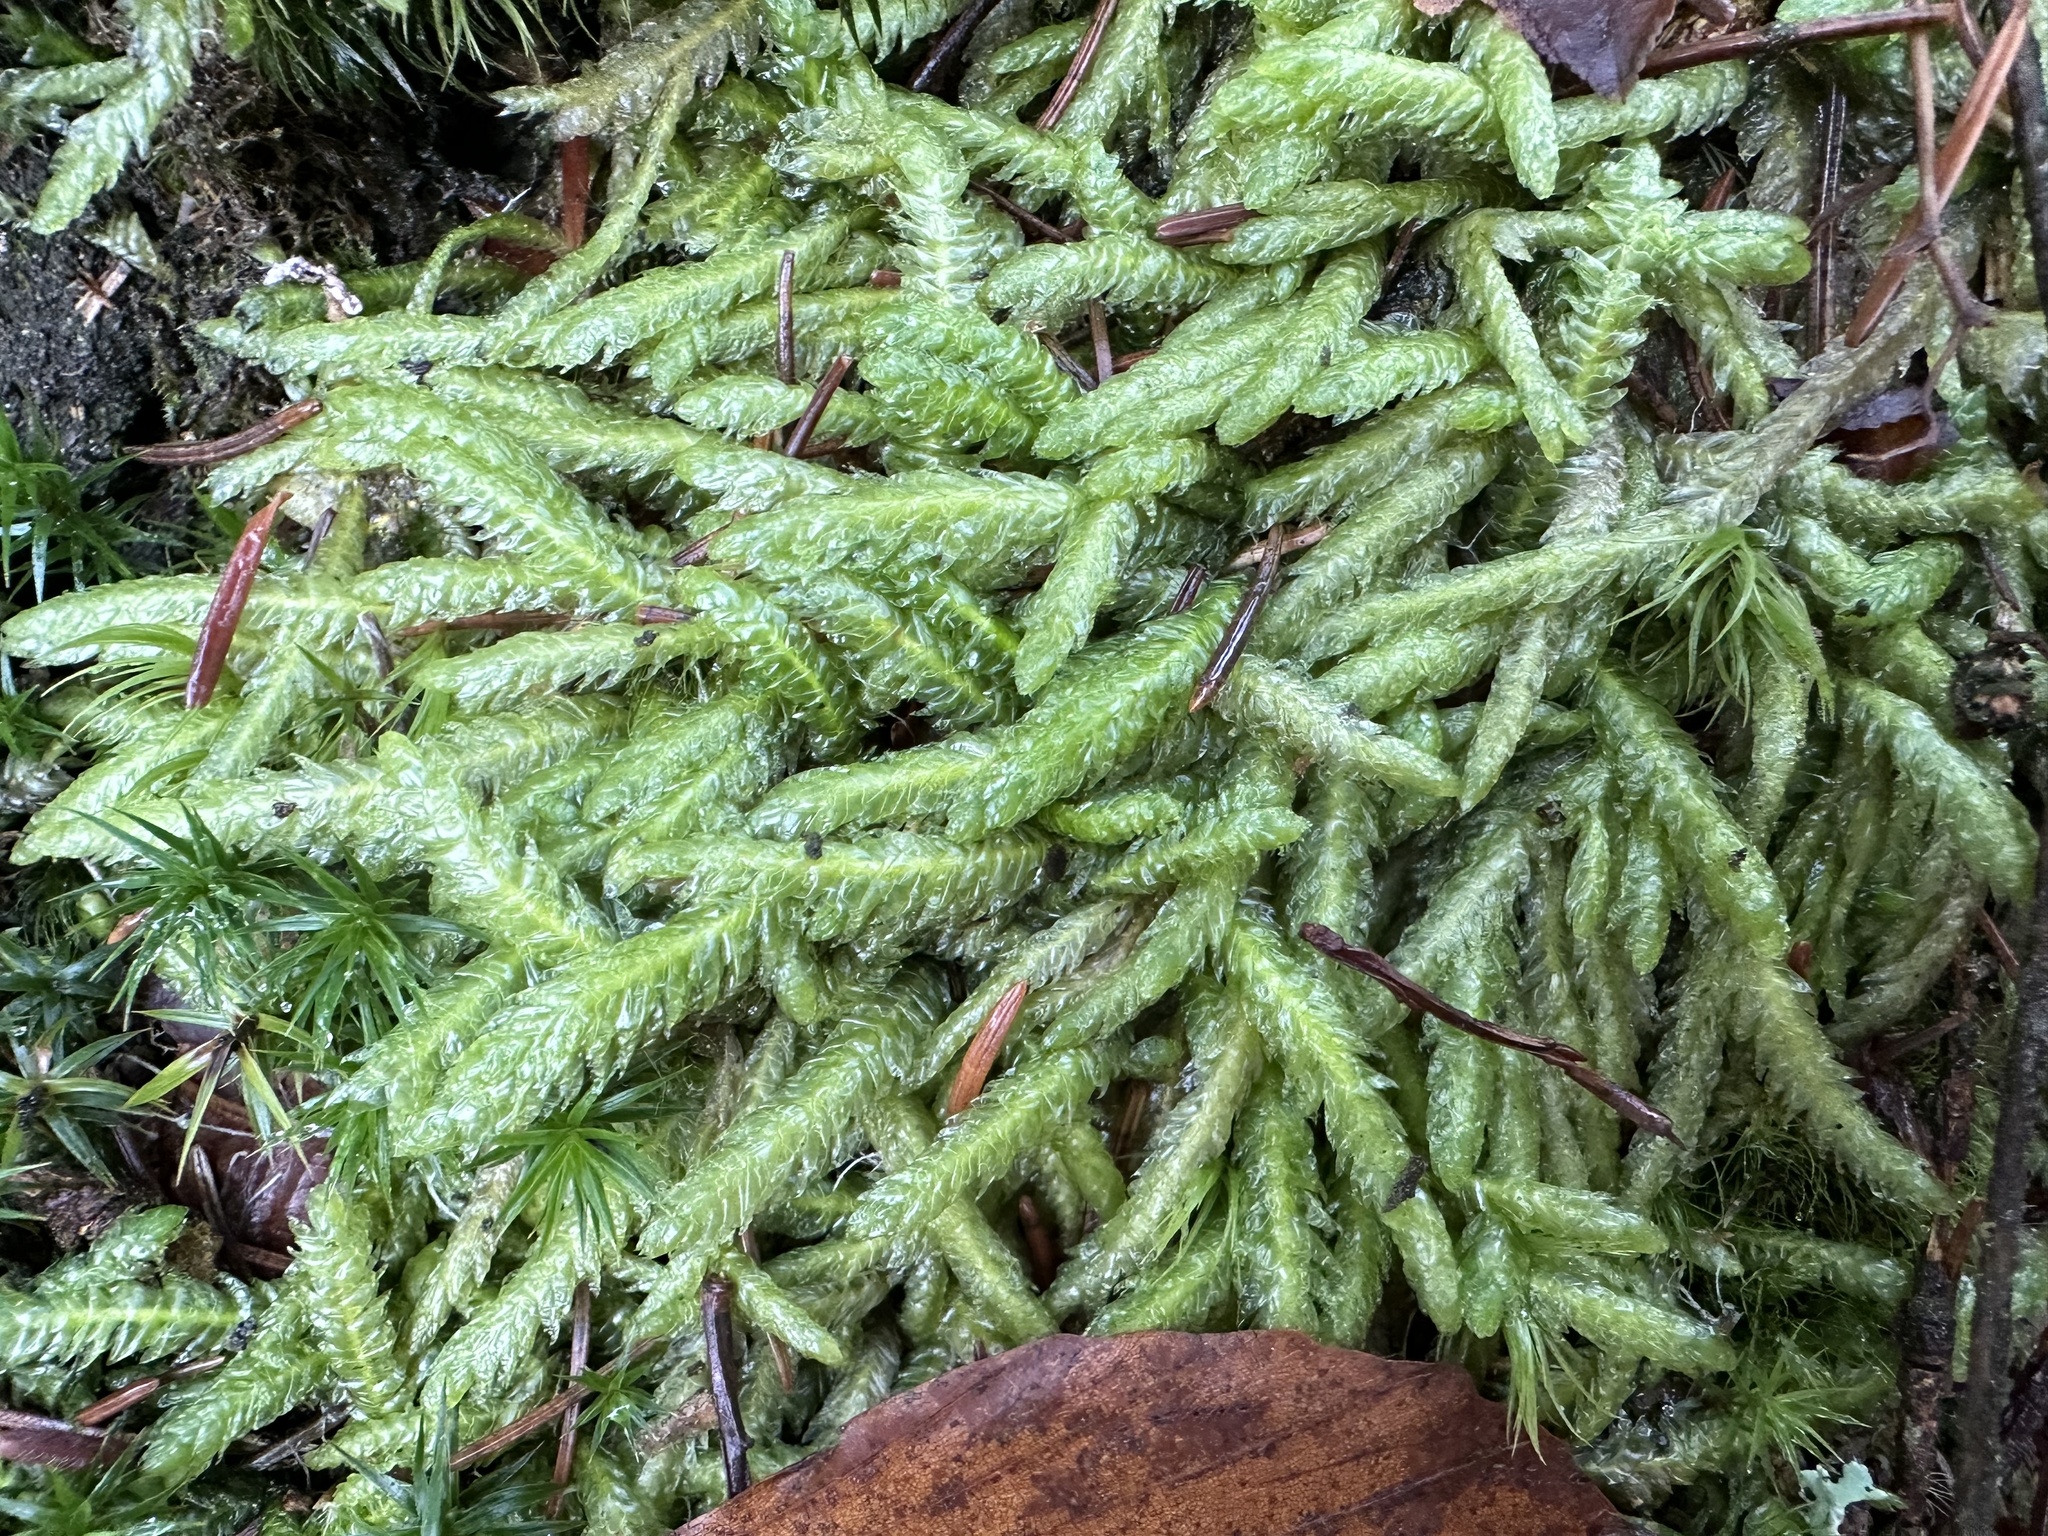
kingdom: Plantae
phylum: Bryophyta
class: Bryopsida
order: Hypnales
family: Plagiotheciaceae
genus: Plagiothecium
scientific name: Plagiothecium undulatum
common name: Waved silk-moss
